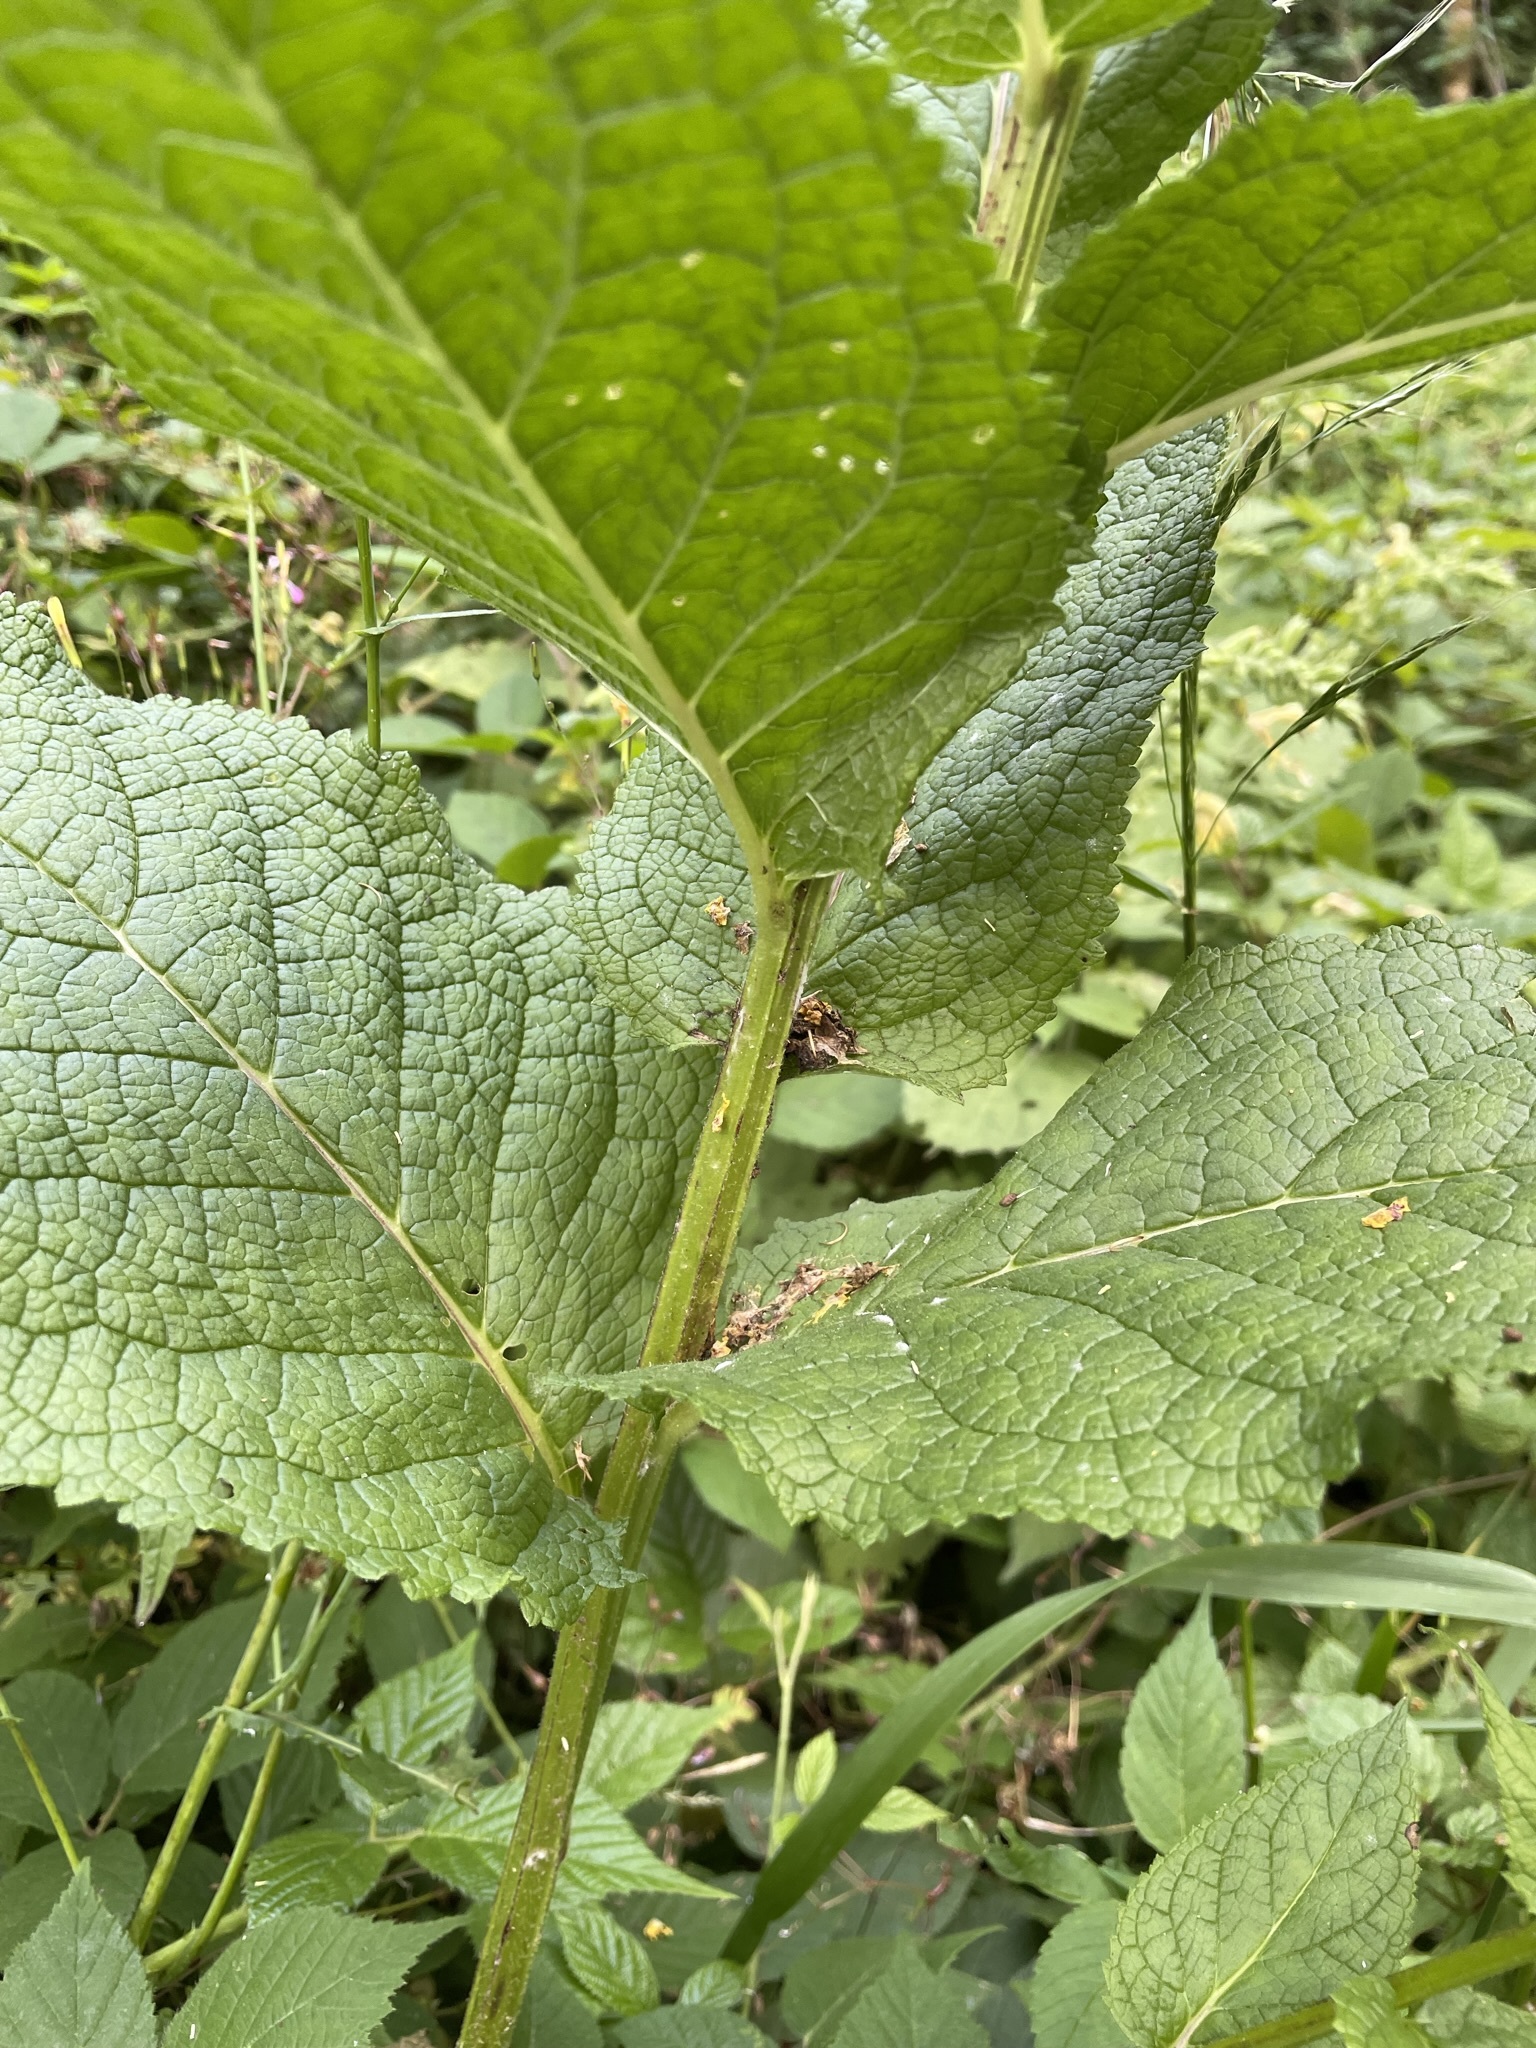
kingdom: Plantae
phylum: Tracheophyta
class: Magnoliopsida
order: Lamiales
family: Scrophulariaceae
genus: Verbascum
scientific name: Verbascum nigrum
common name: Dark mullein
